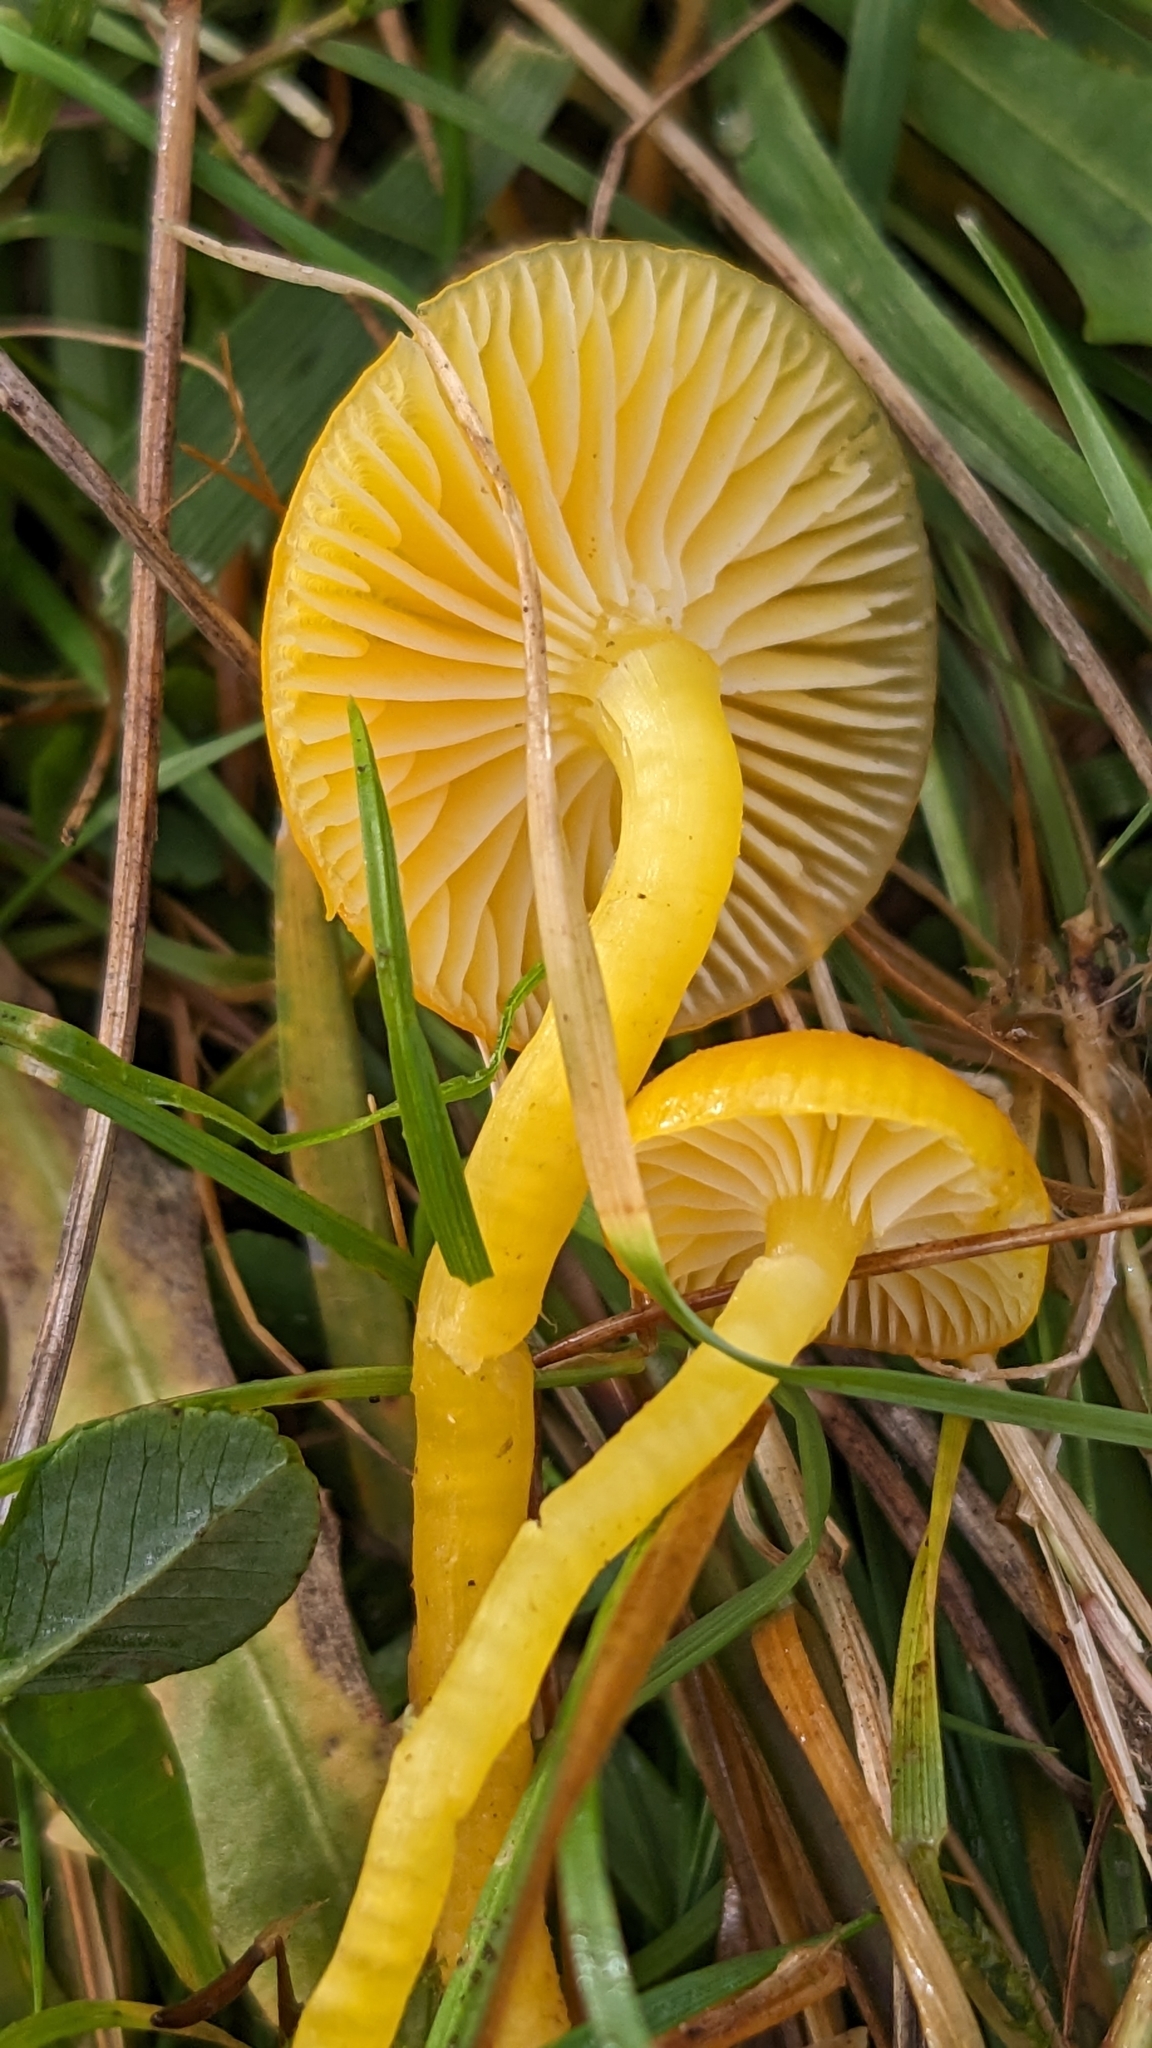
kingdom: Fungi
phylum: Basidiomycota
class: Agaricomycetes
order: Agaricales
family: Hygrophoraceae
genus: Hygrocybe
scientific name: Hygrocybe ceracea
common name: Butter waxcap
